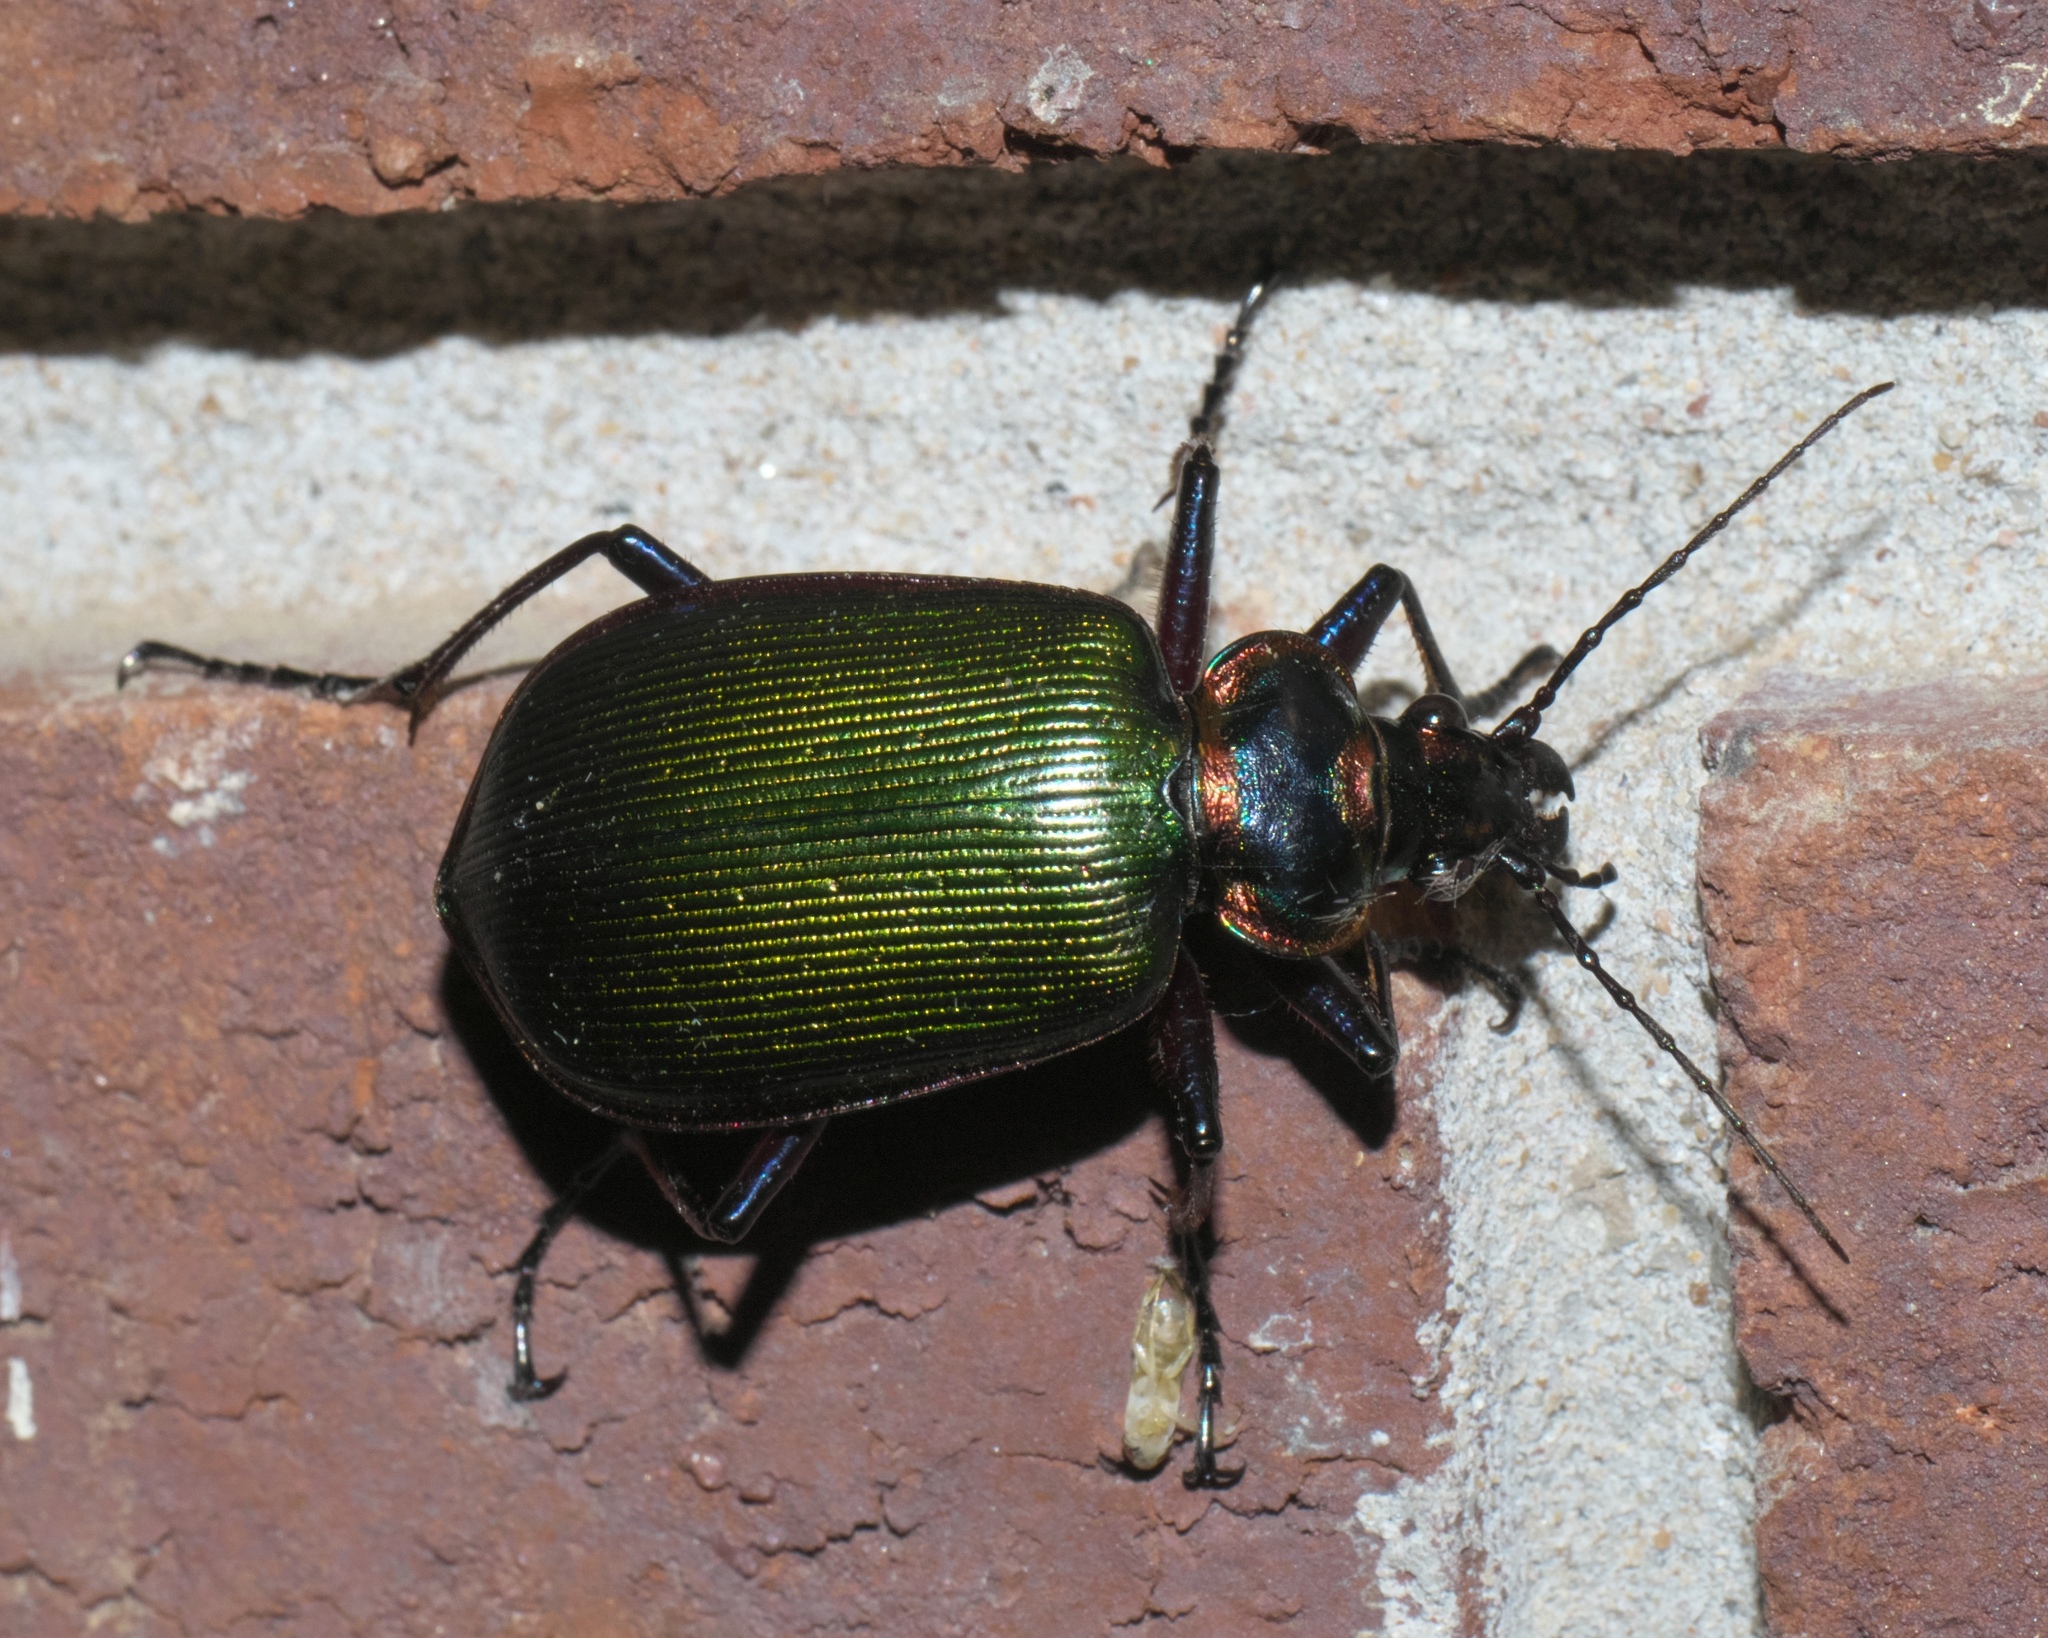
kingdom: Animalia
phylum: Arthropoda
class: Insecta
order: Coleoptera
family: Carabidae
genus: Calosoma
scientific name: Calosoma scrutator
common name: Fiery searcher beetle
